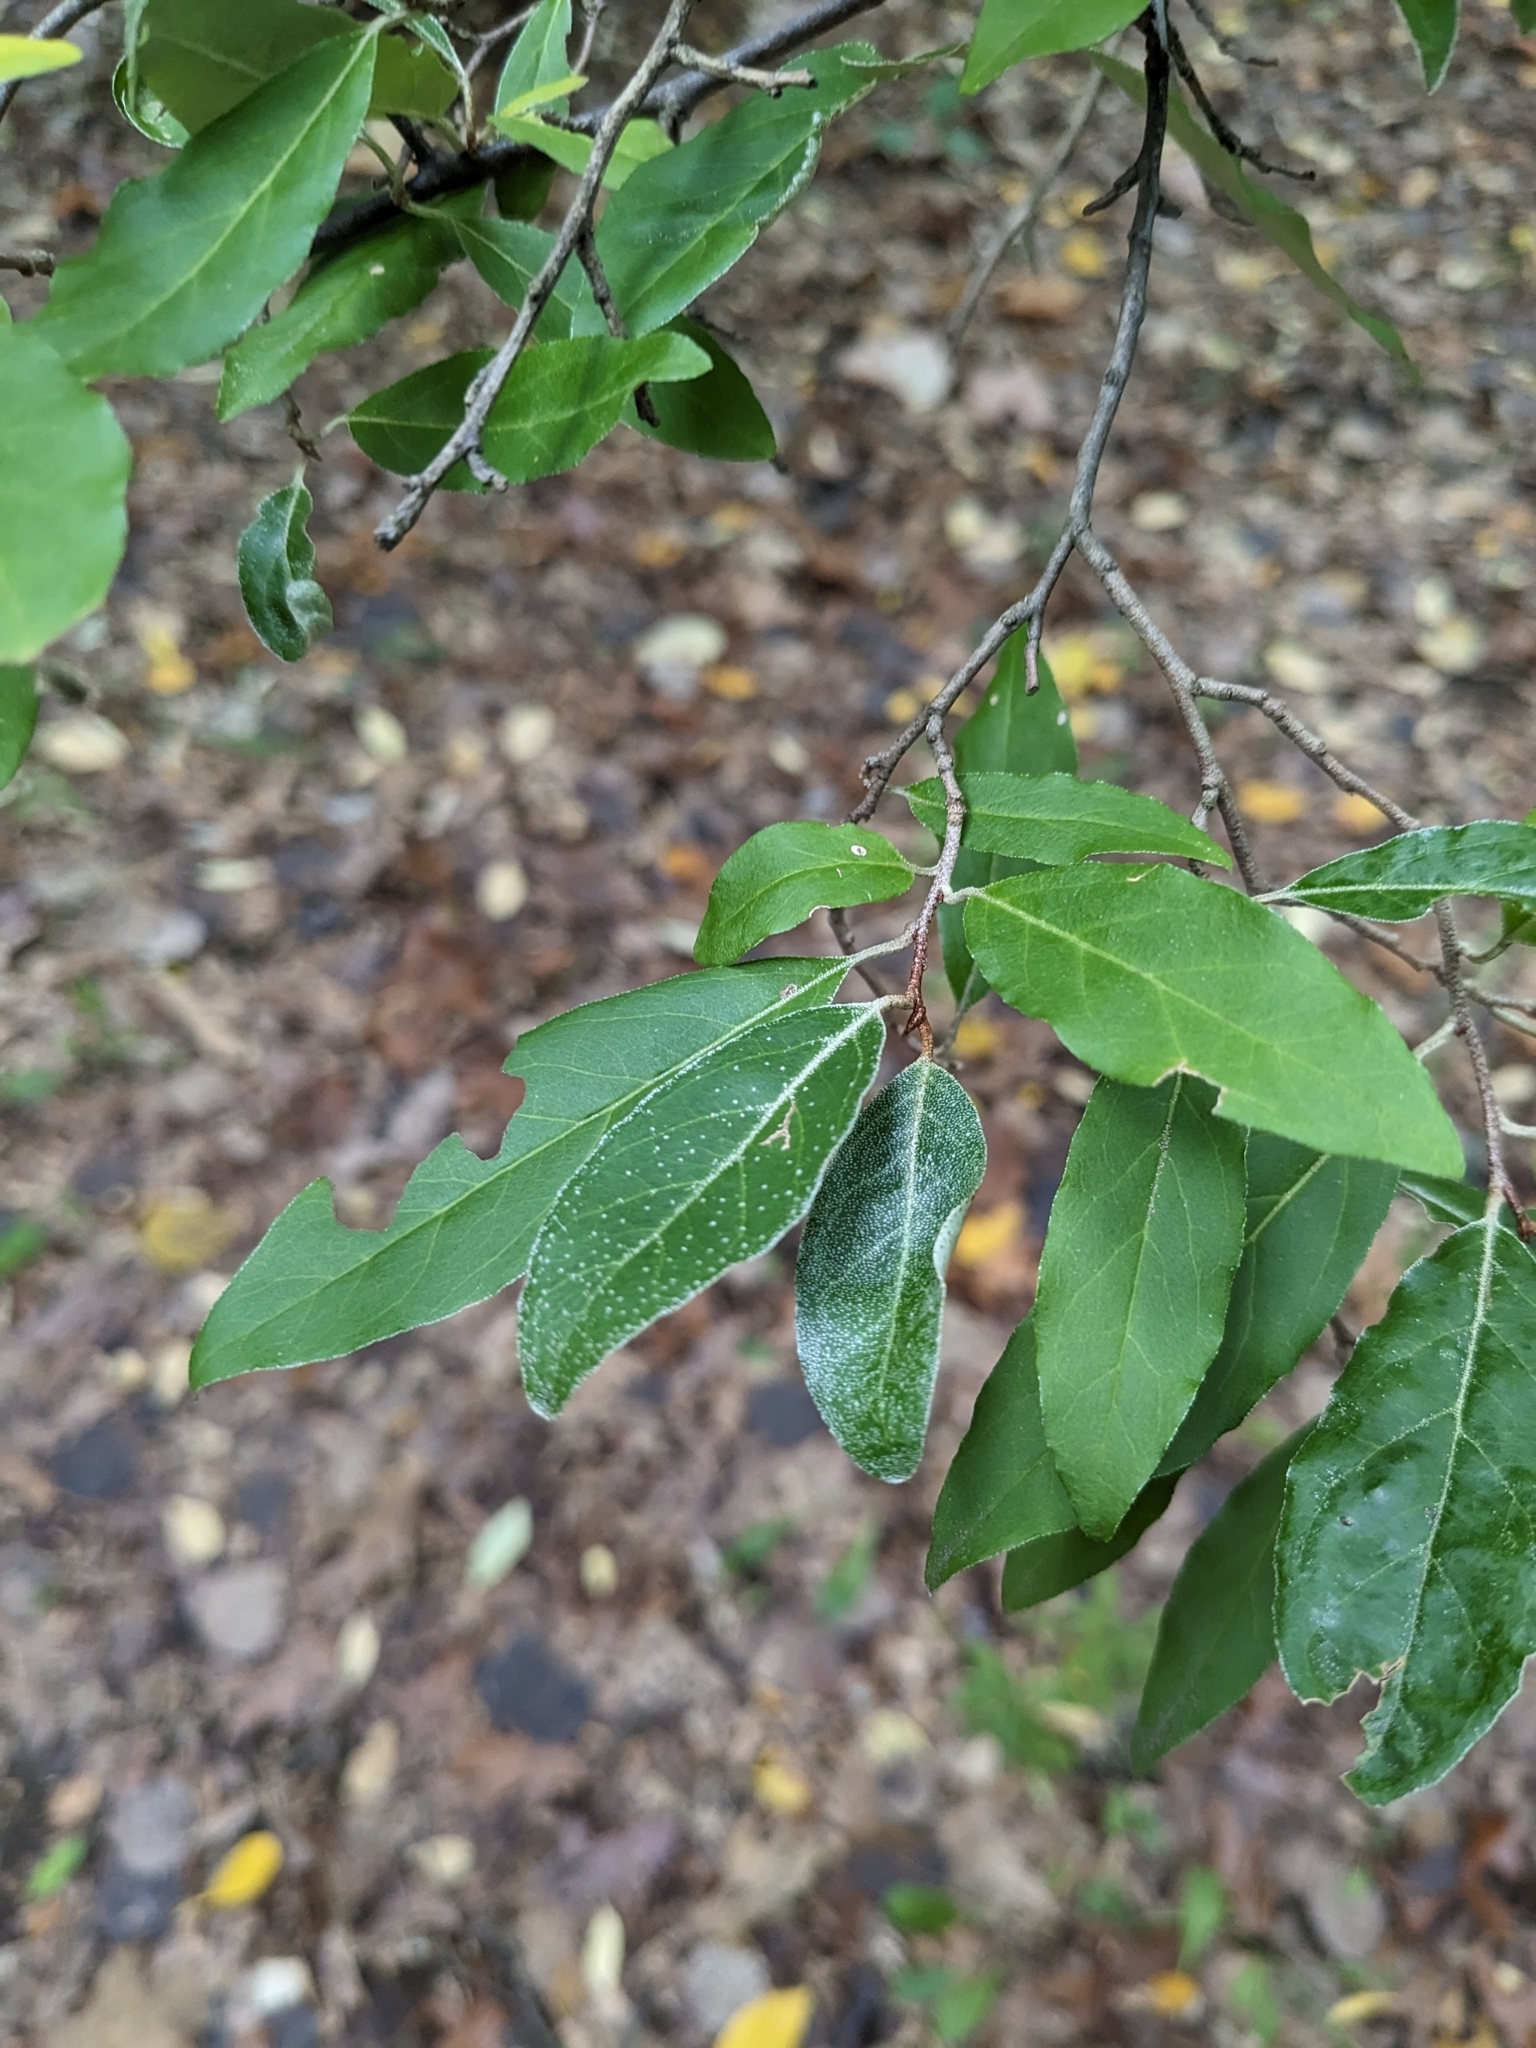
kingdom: Plantae
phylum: Tracheophyta
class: Magnoliopsida
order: Rosales
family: Elaeagnaceae
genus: Elaeagnus
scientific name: Elaeagnus umbellata
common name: Autumn olive
